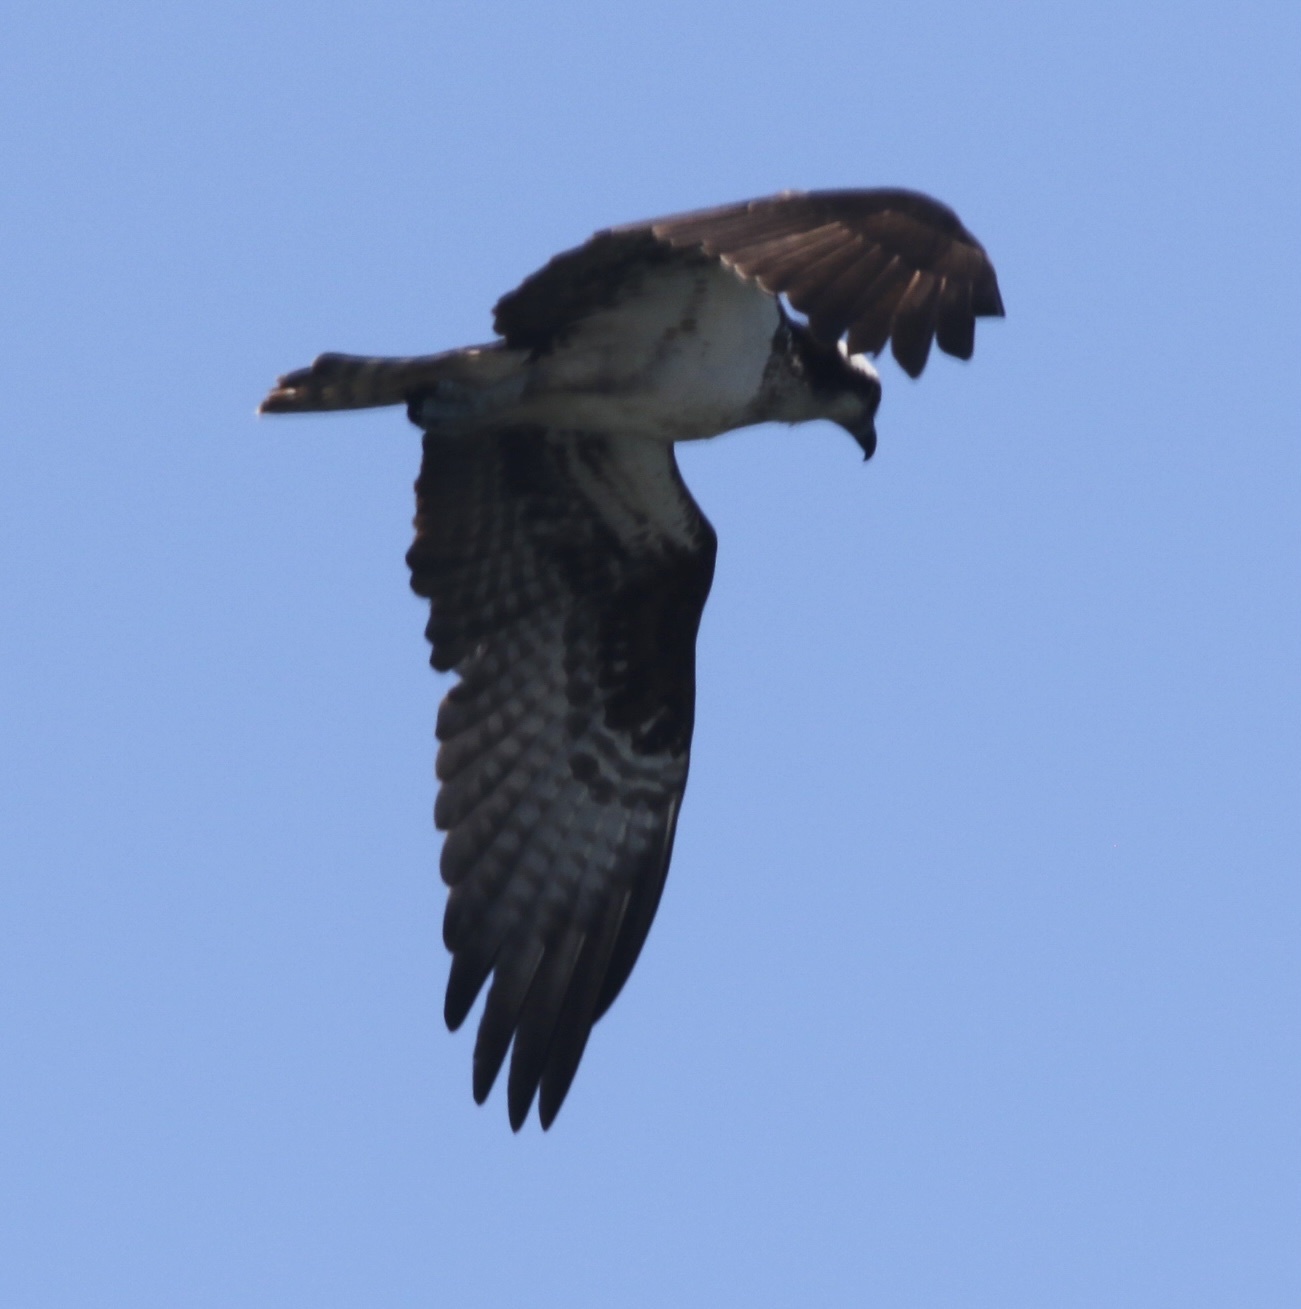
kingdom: Animalia
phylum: Chordata
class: Aves
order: Accipitriformes
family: Pandionidae
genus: Pandion
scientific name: Pandion haliaetus
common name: Osprey
